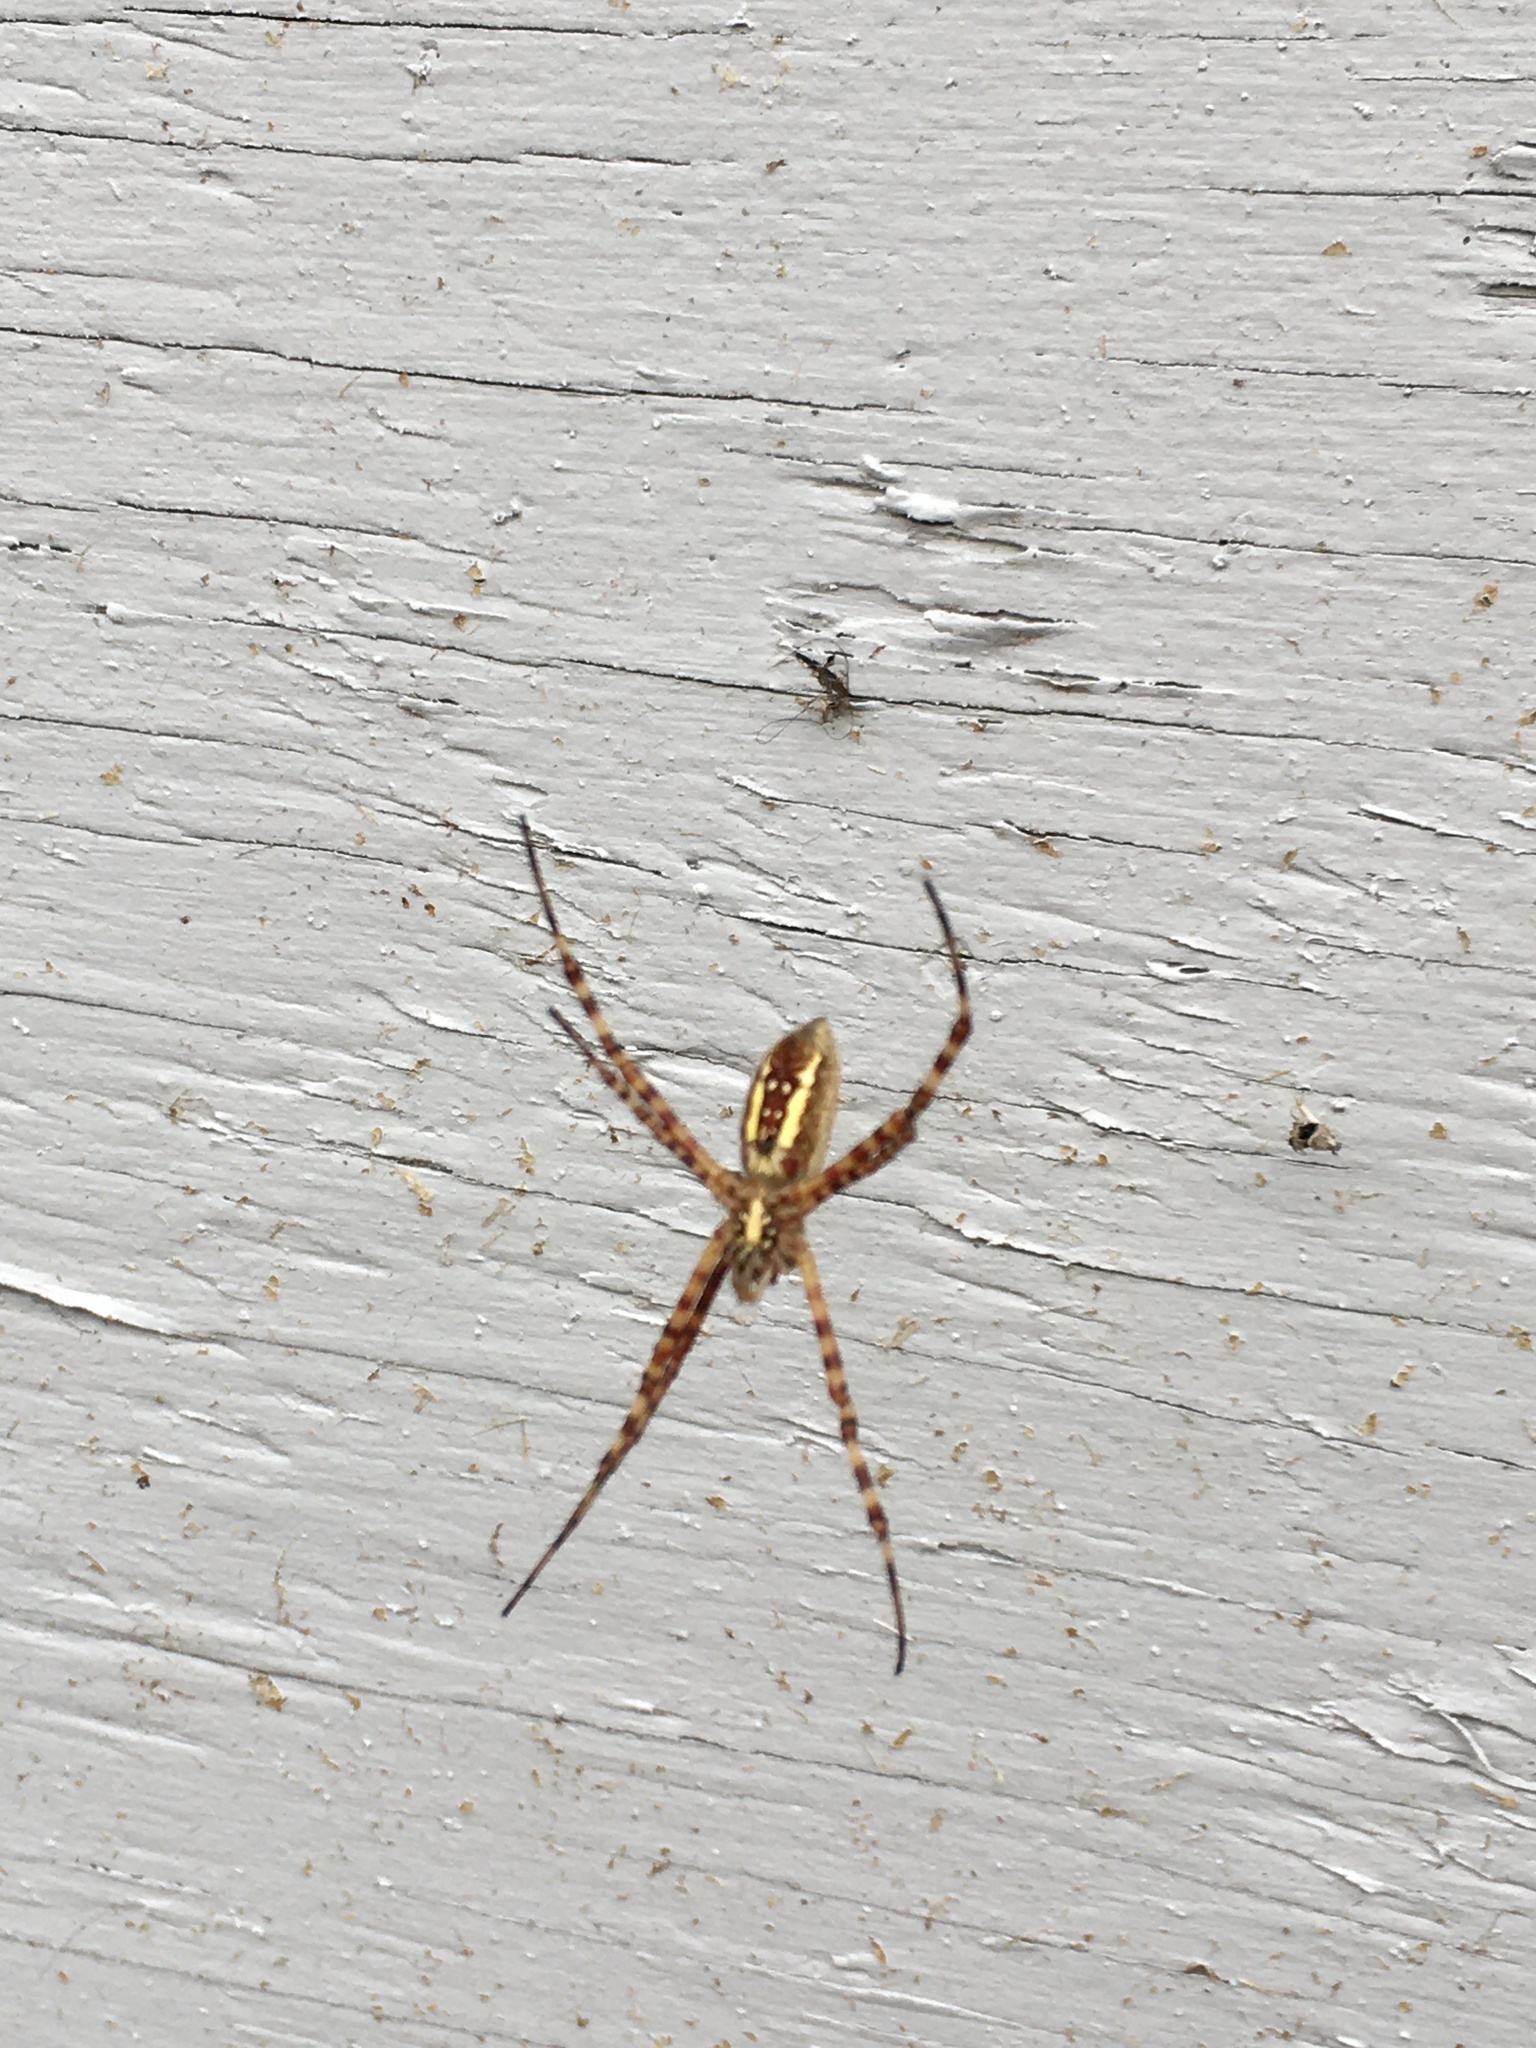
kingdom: Animalia
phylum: Arthropoda
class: Arachnida
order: Araneae
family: Araneidae
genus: Argiope
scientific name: Argiope trifasciata
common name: Banded garden spider
